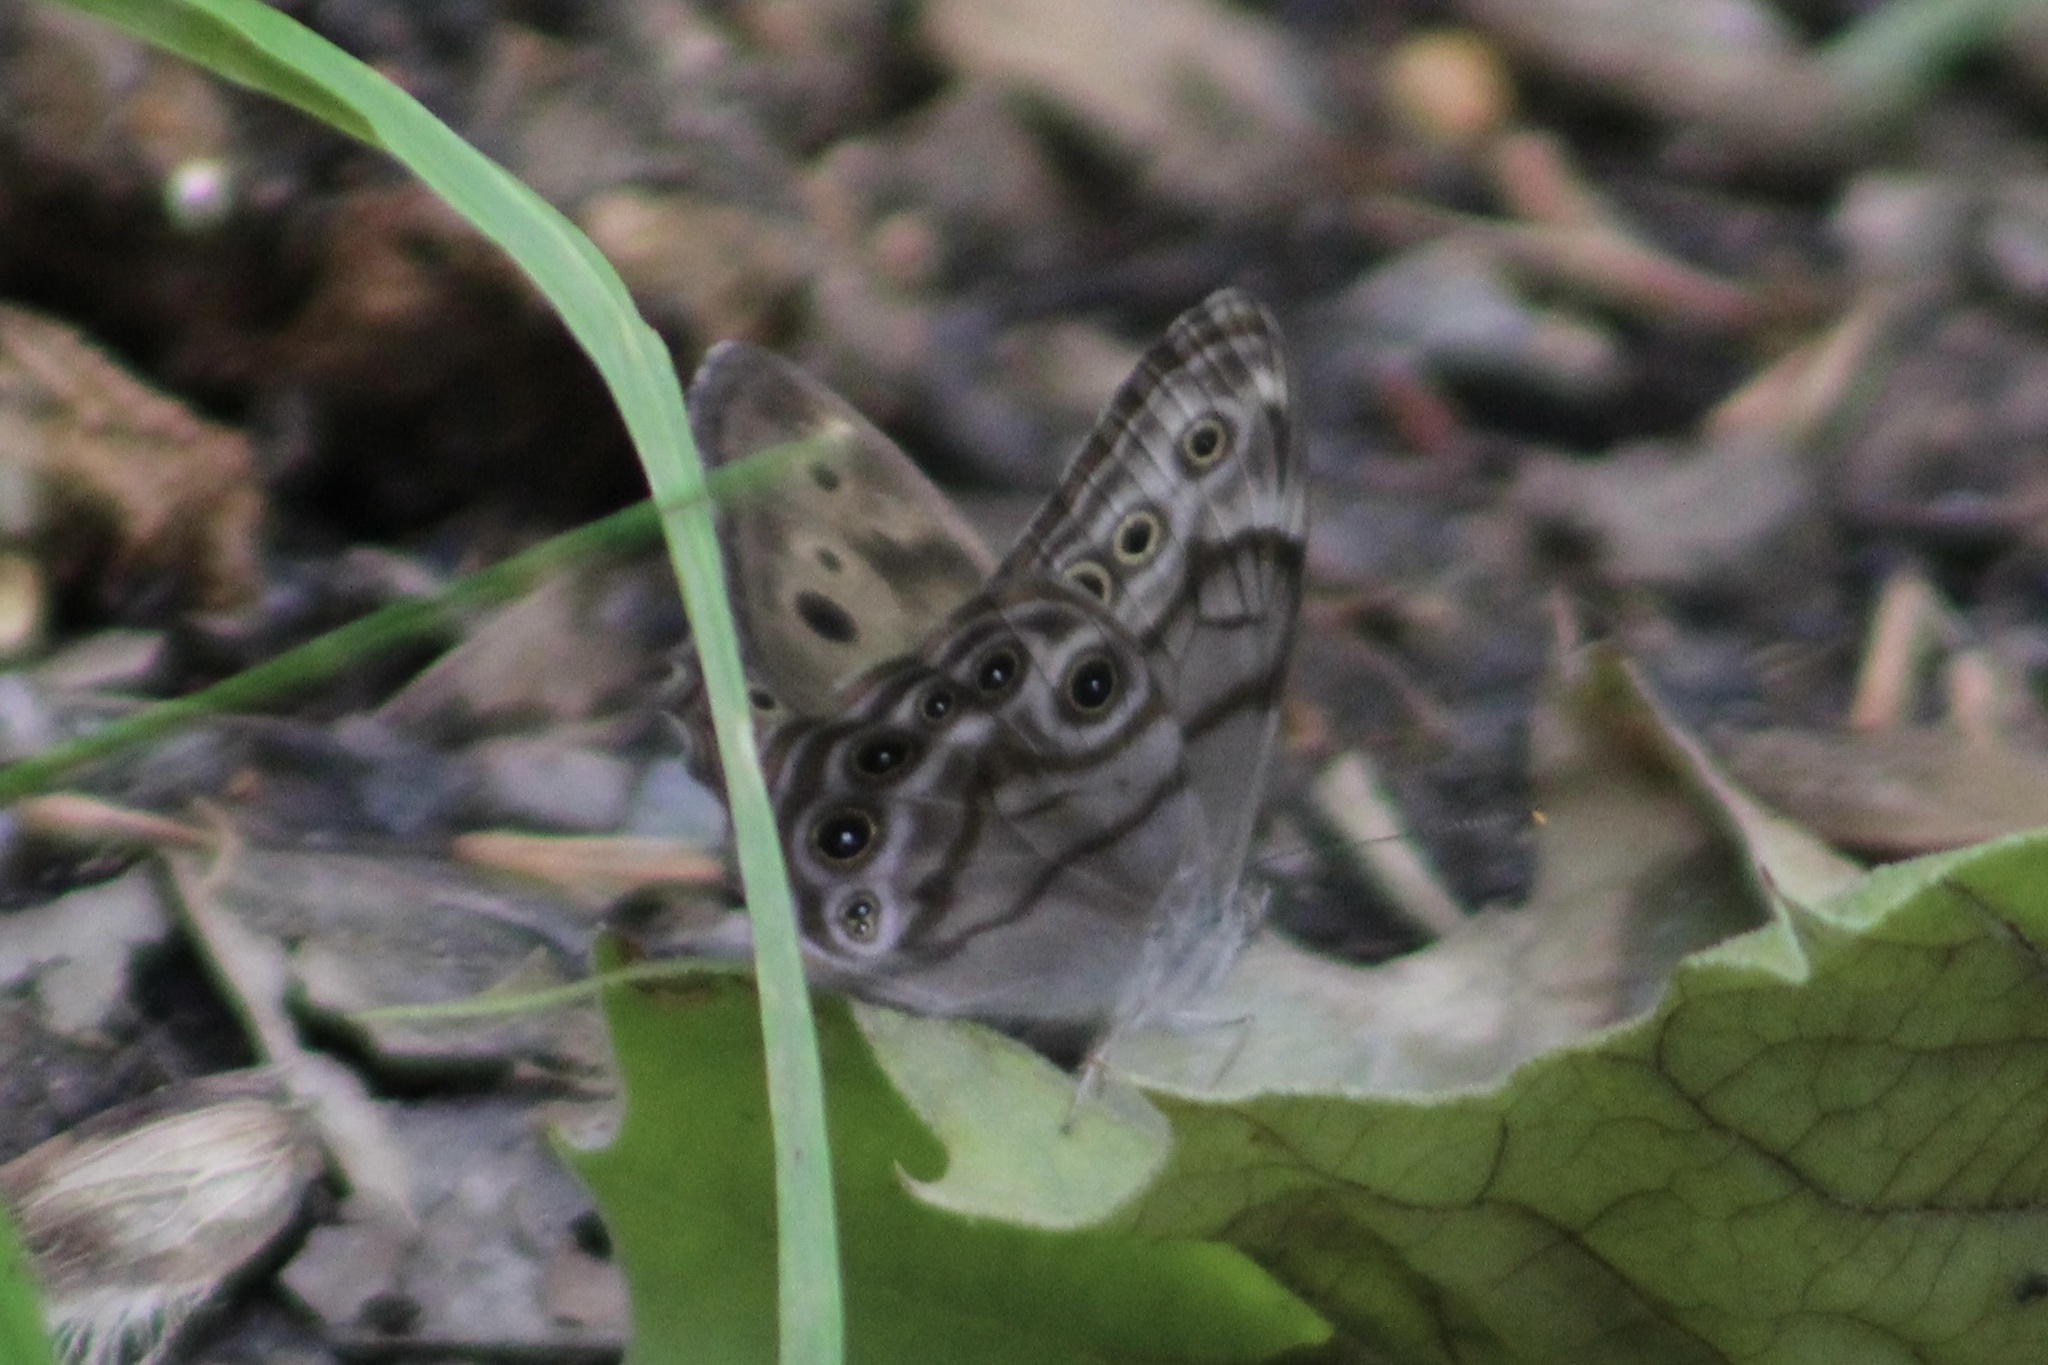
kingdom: Animalia
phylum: Arthropoda
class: Insecta
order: Lepidoptera
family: Nymphalidae
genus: Lethe
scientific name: Lethe anthedon
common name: Northern pearly-eye
